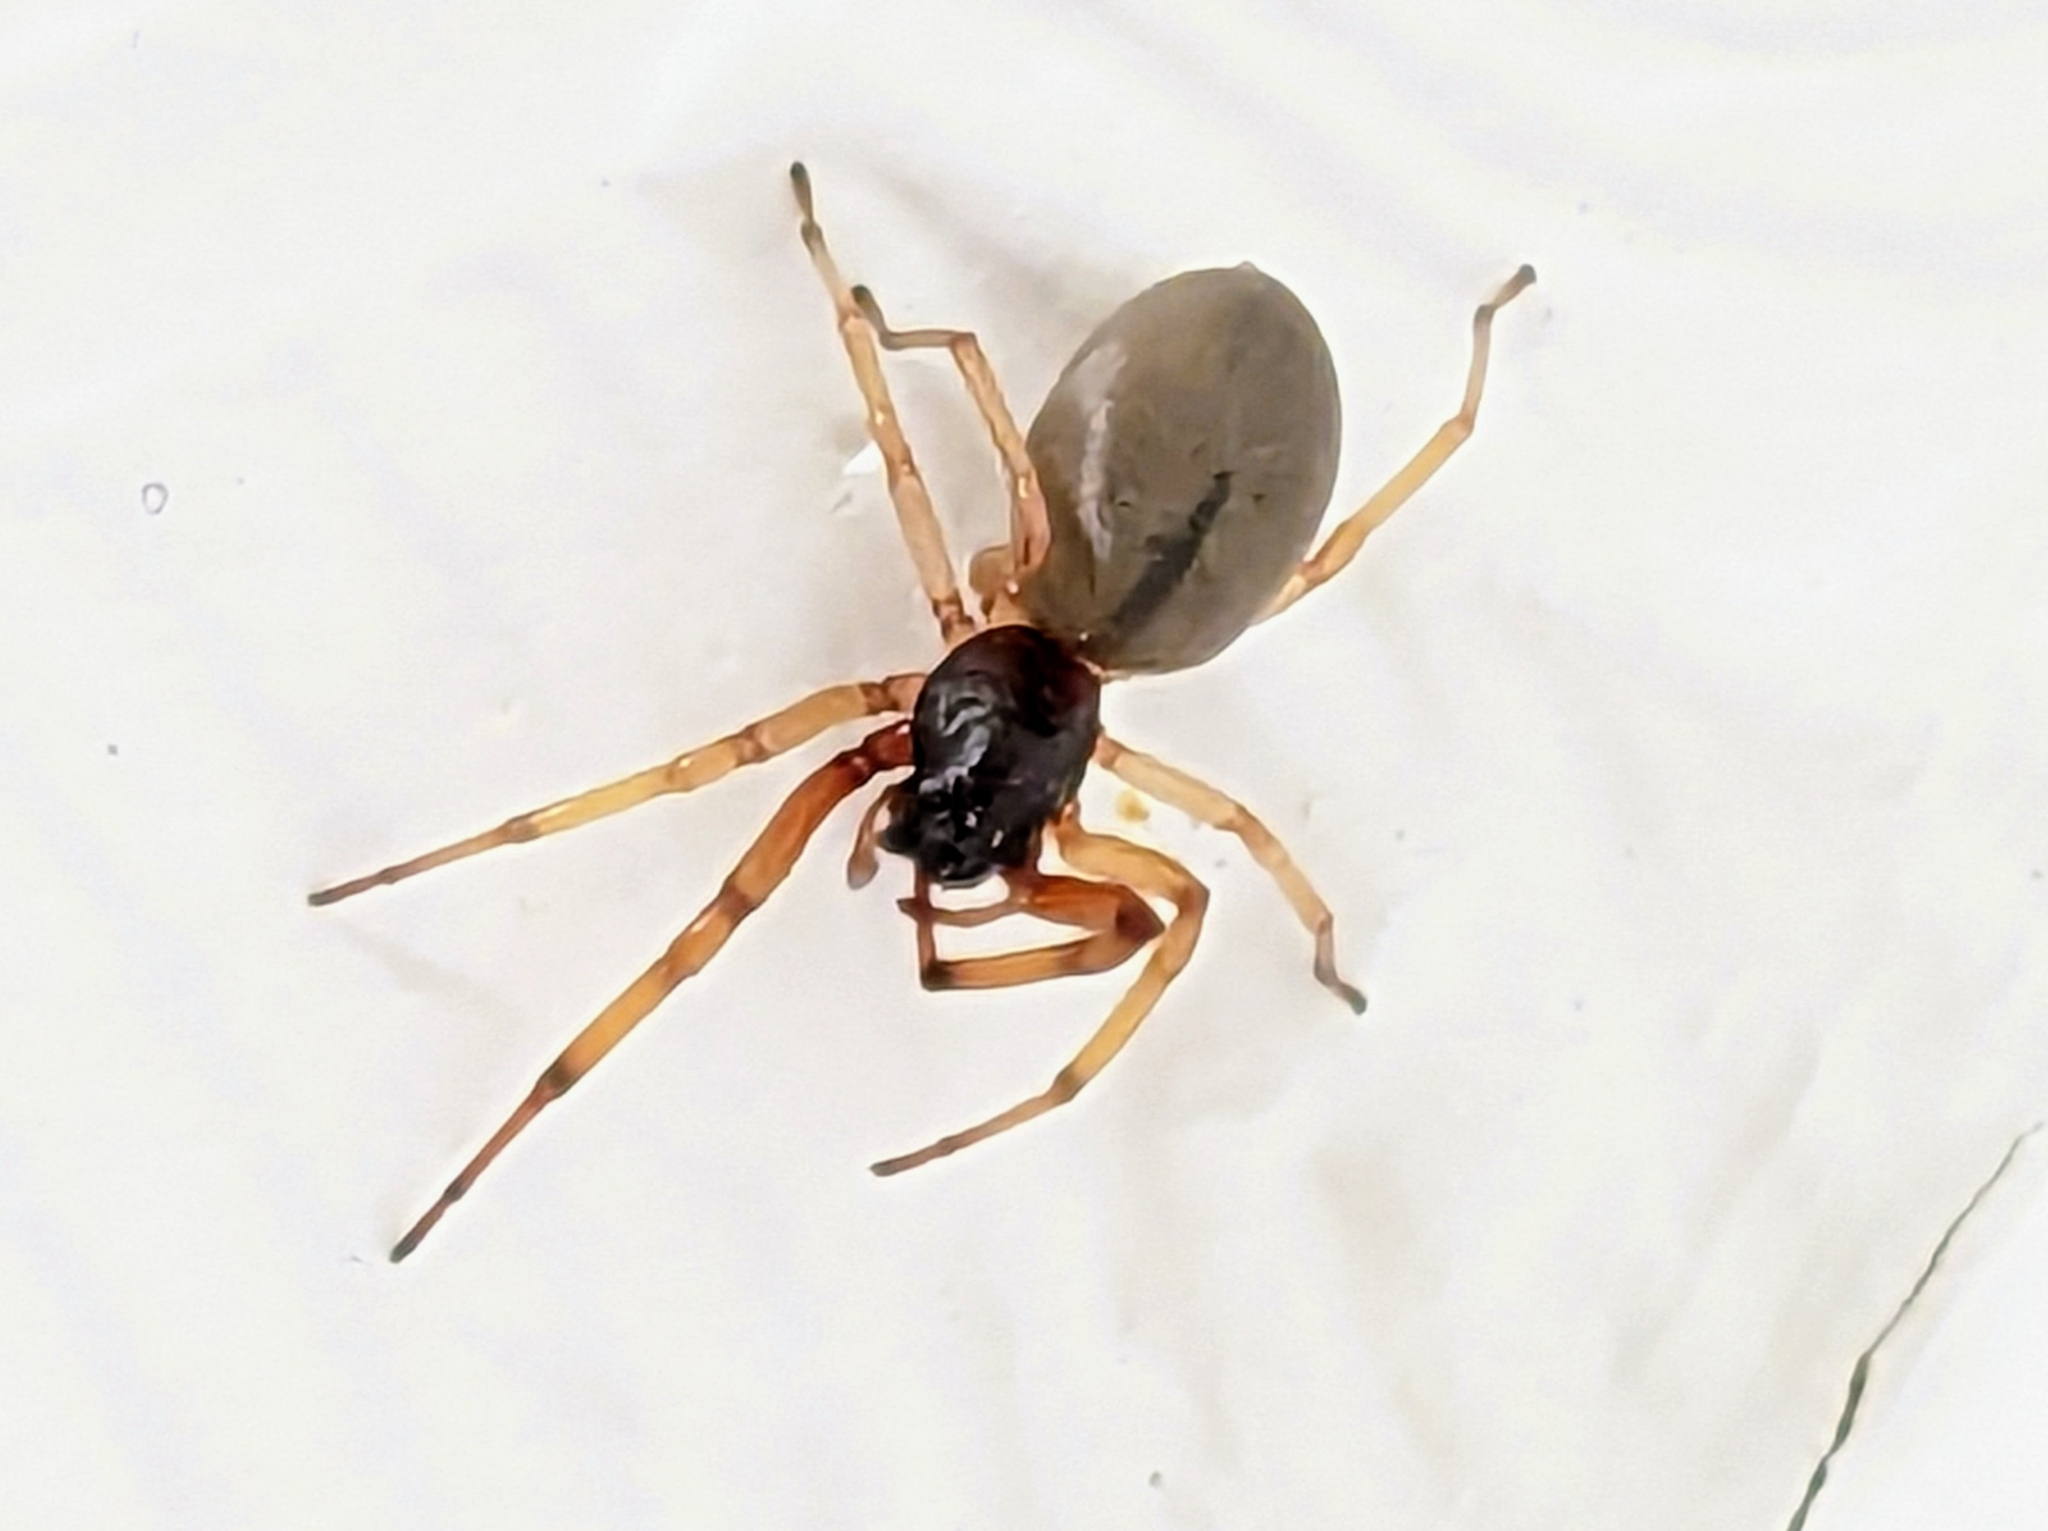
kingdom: Animalia
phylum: Arthropoda
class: Arachnida
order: Araneae
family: Trachelidae
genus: Trachelas
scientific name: Trachelas tranquillus
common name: Broad-faced sac spider
